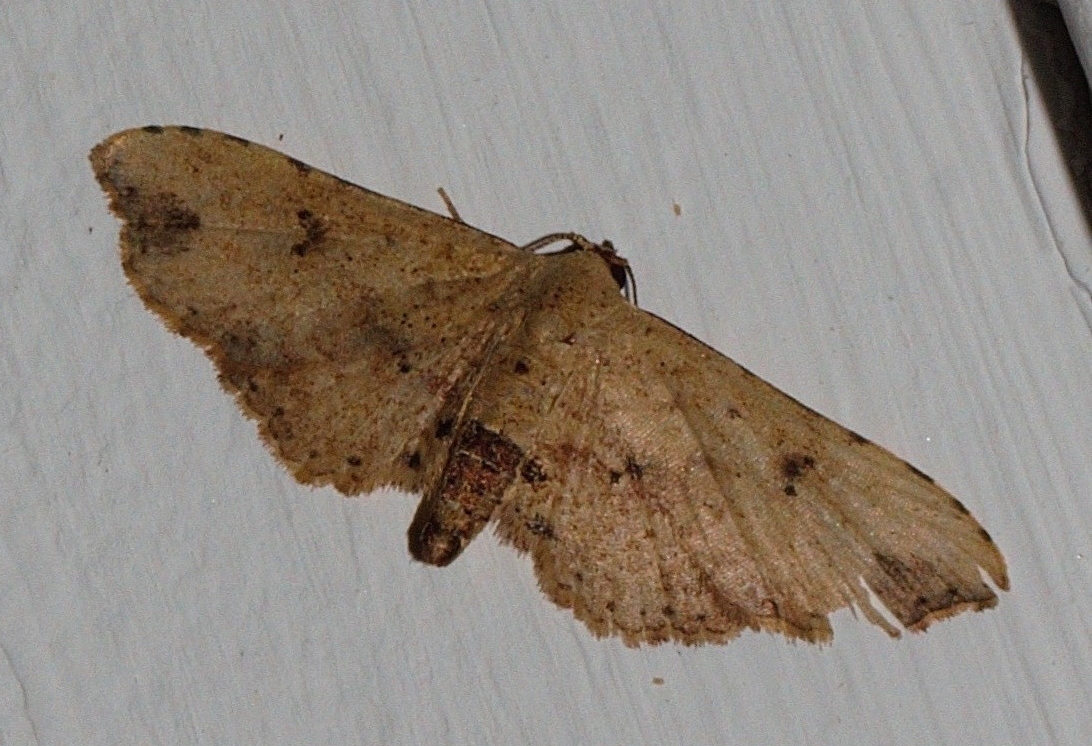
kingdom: Animalia
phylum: Arthropoda
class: Insecta
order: Lepidoptera
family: Noctuidae
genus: Hypobleta
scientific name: Hypobleta viettei
